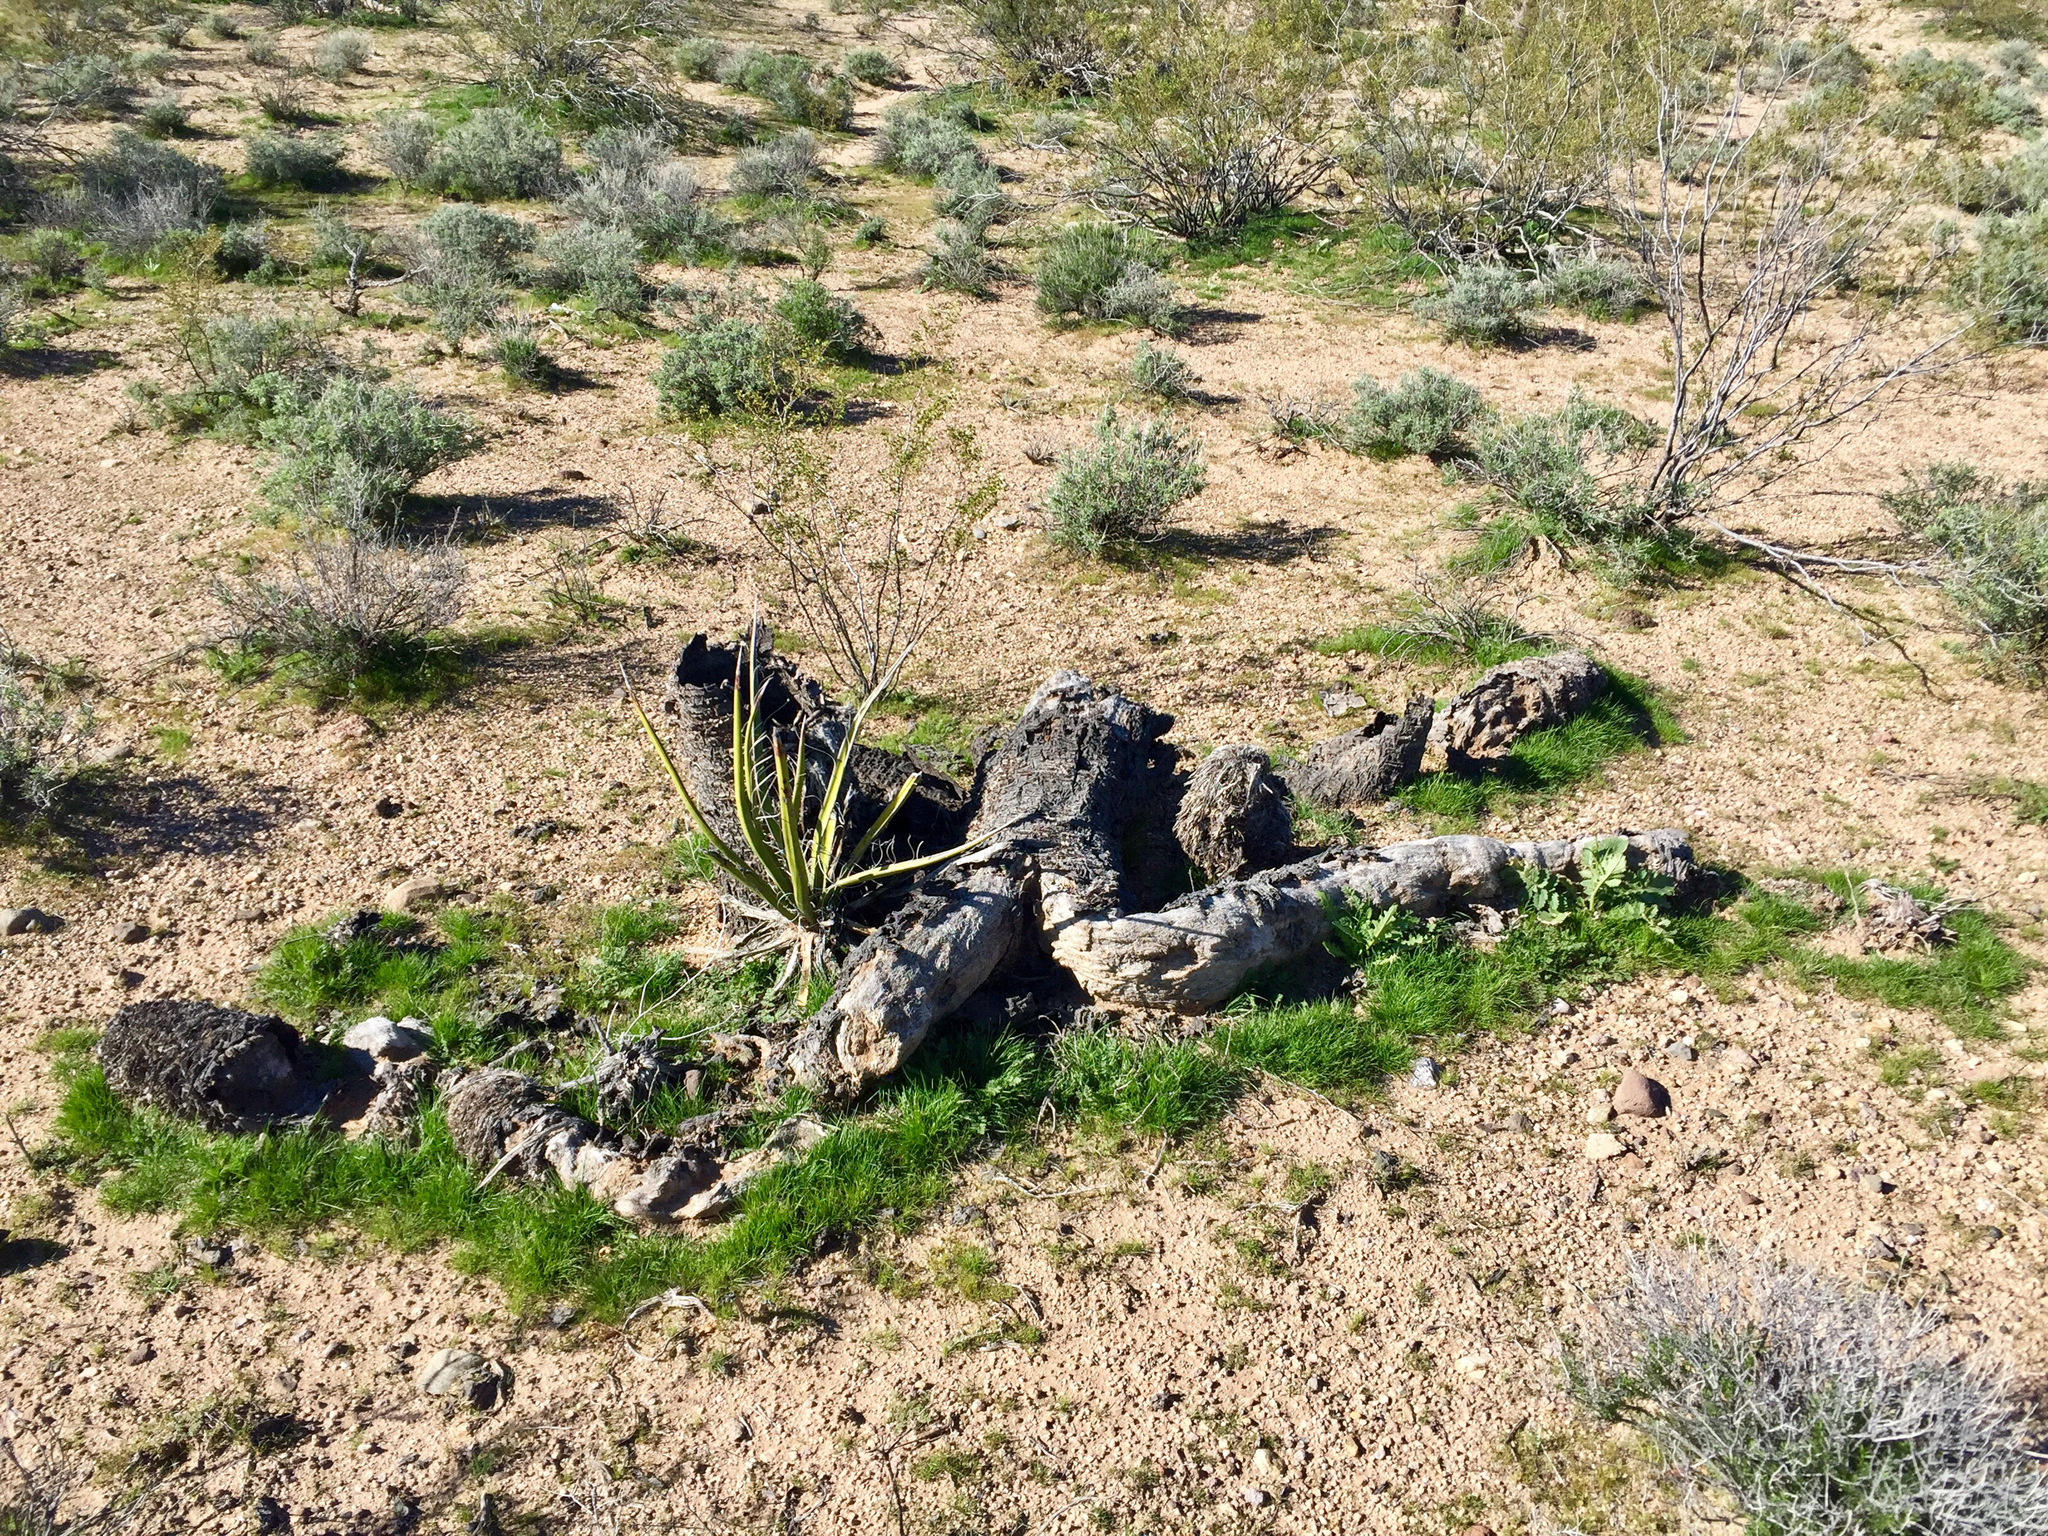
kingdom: Plantae
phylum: Tracheophyta
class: Liliopsida
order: Asparagales
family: Asparagaceae
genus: Yucca
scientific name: Yucca schidigera
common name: Mojave yucca
